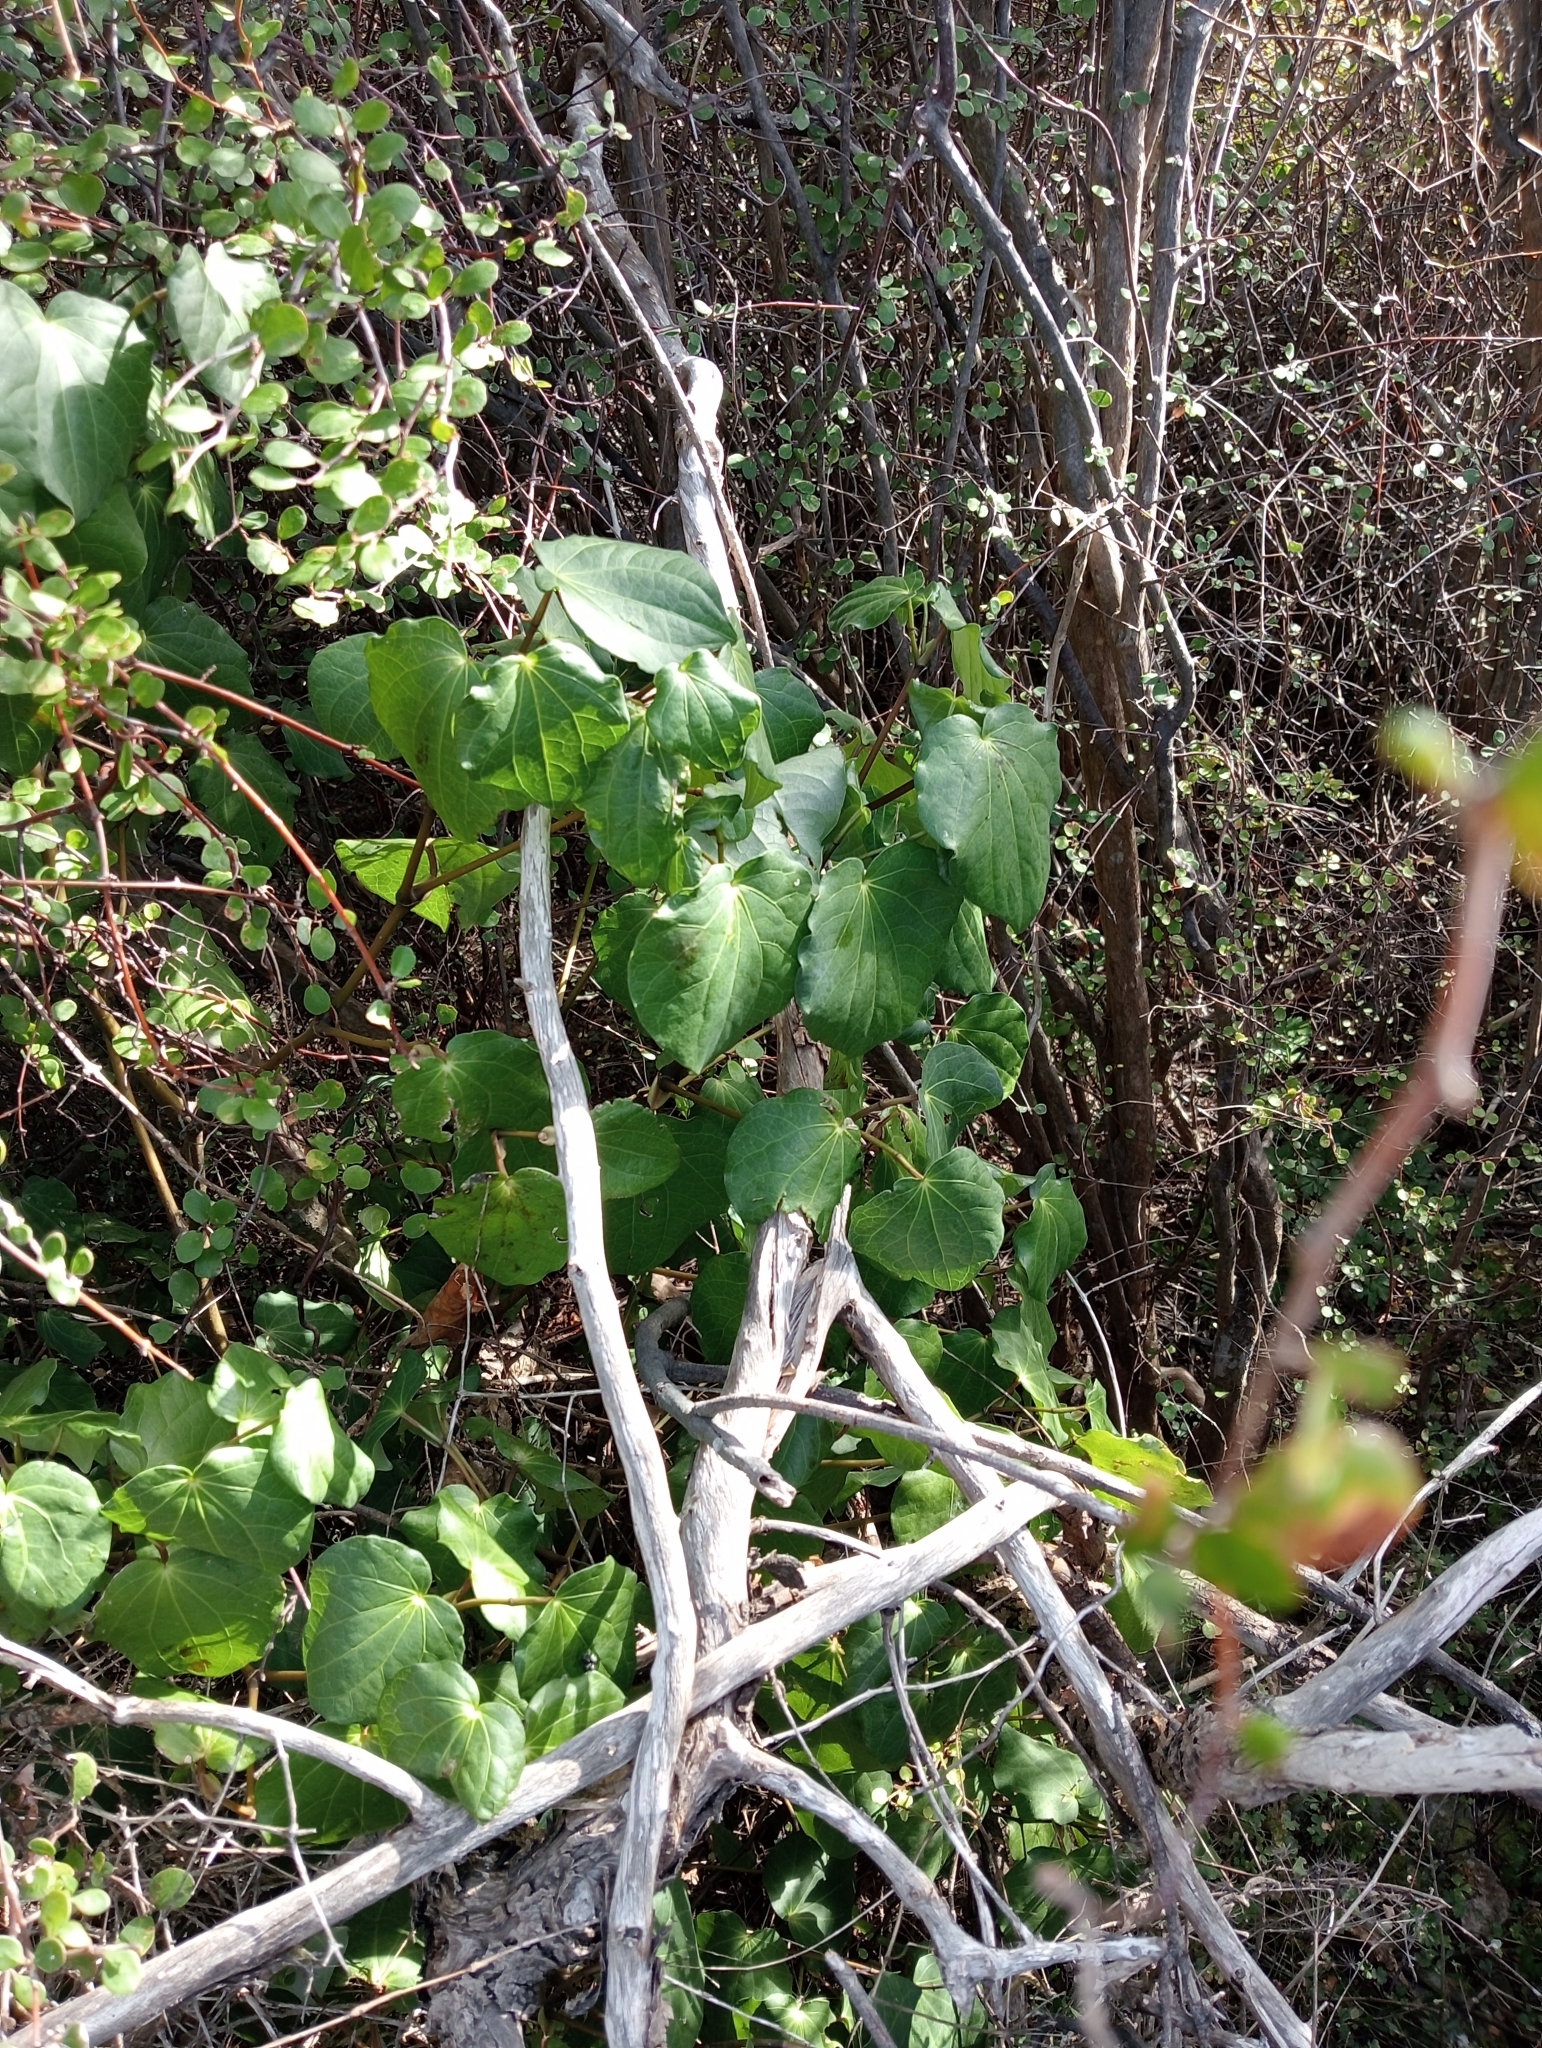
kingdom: Plantae
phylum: Tracheophyta
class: Magnoliopsida
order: Piperales
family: Piperaceae
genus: Macropiper
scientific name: Macropiper excelsum
